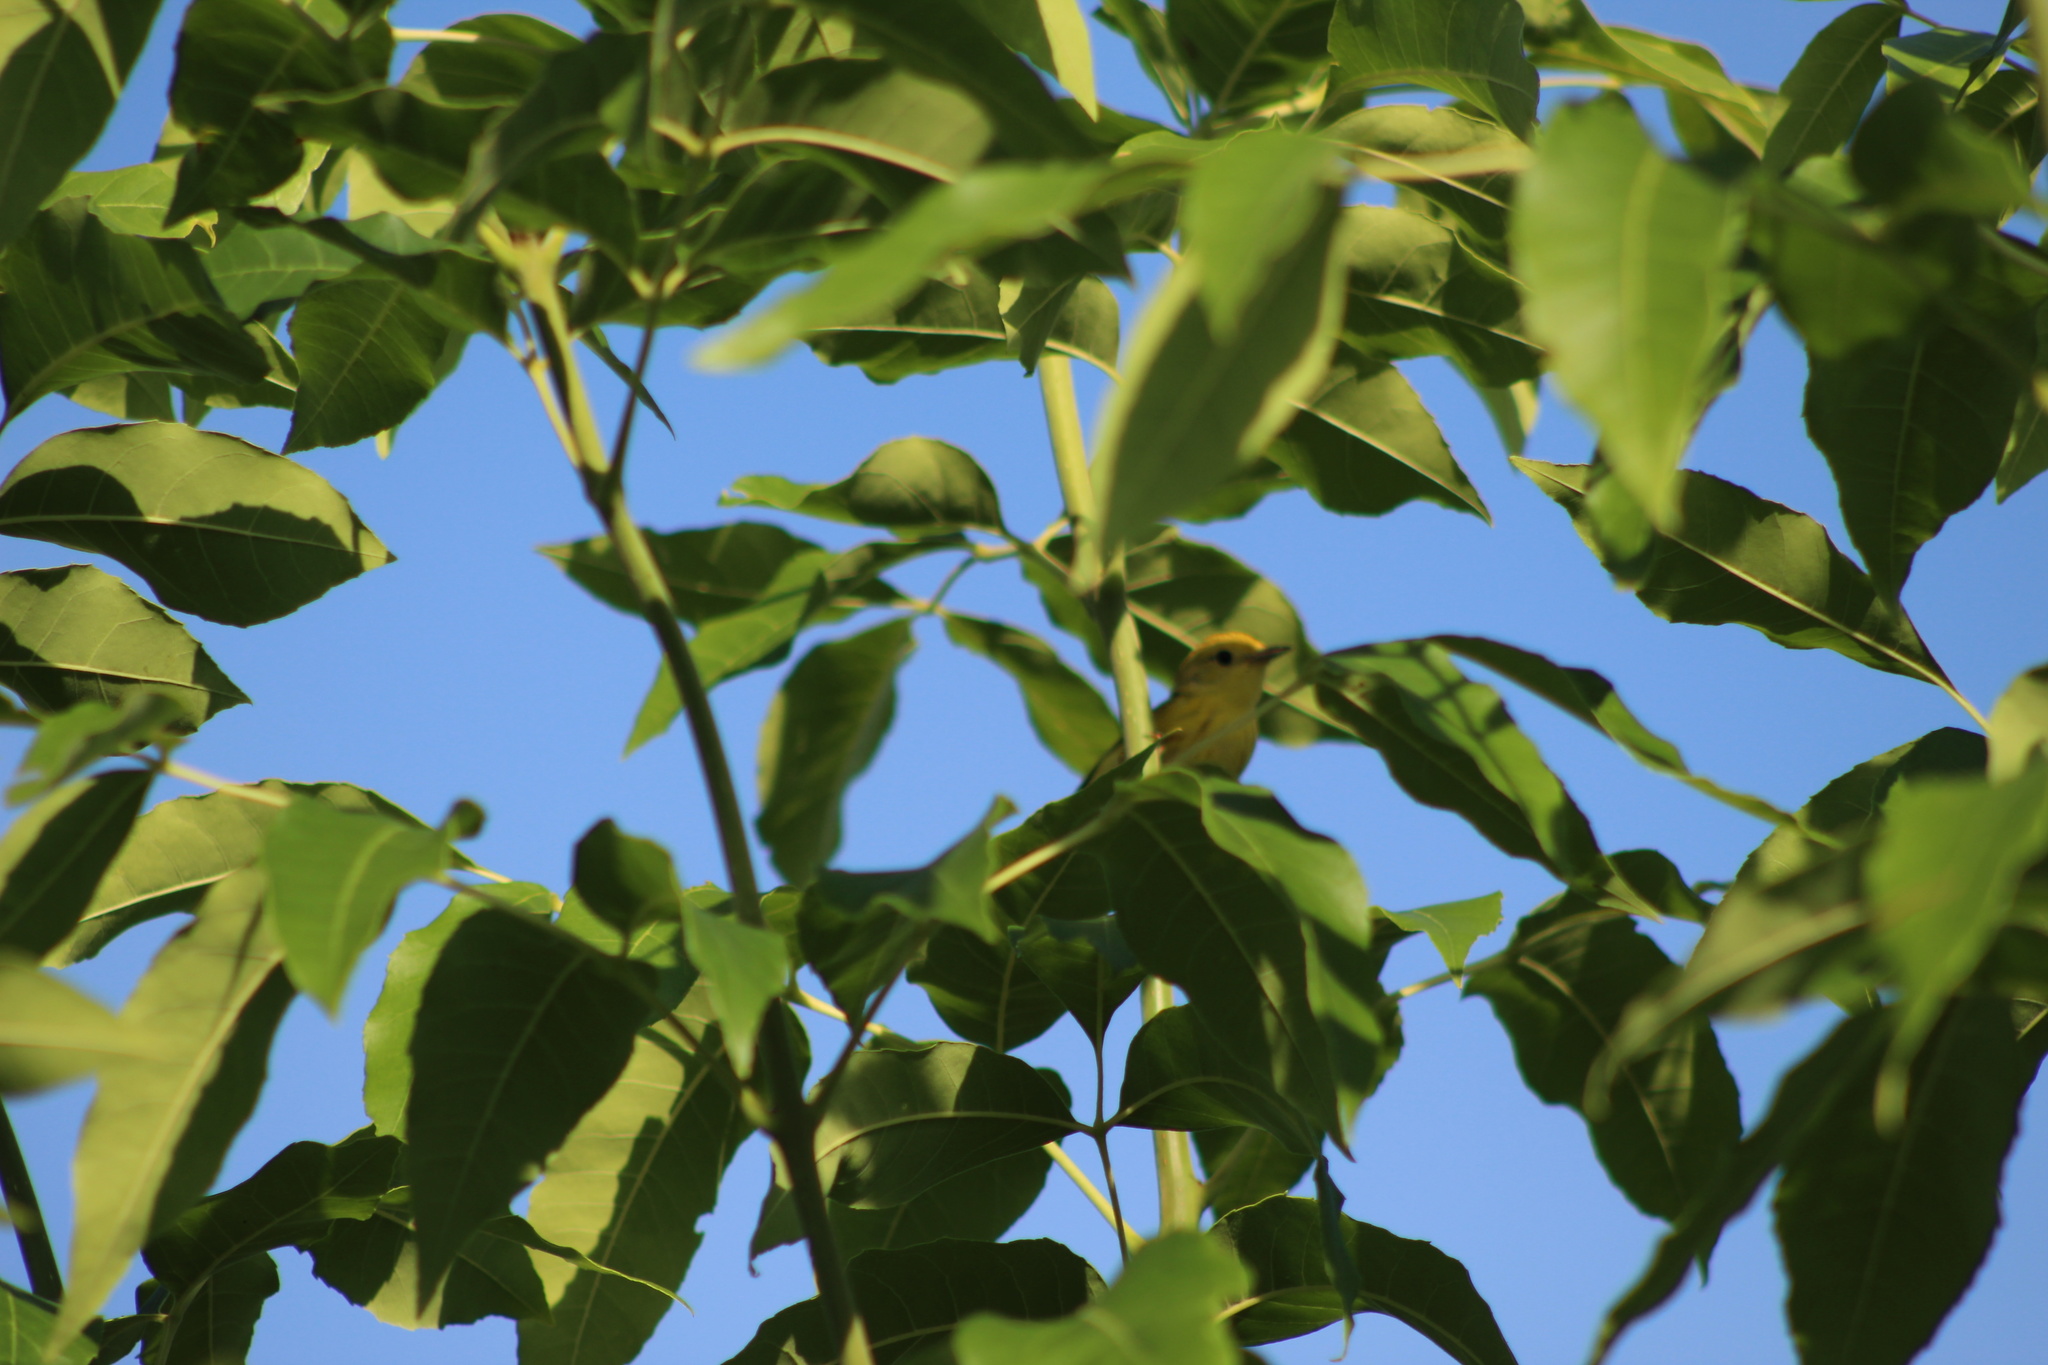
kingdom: Animalia
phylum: Chordata
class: Aves
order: Passeriformes
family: Parulidae
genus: Setophaga
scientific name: Setophaga petechia
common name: Yellow warbler
